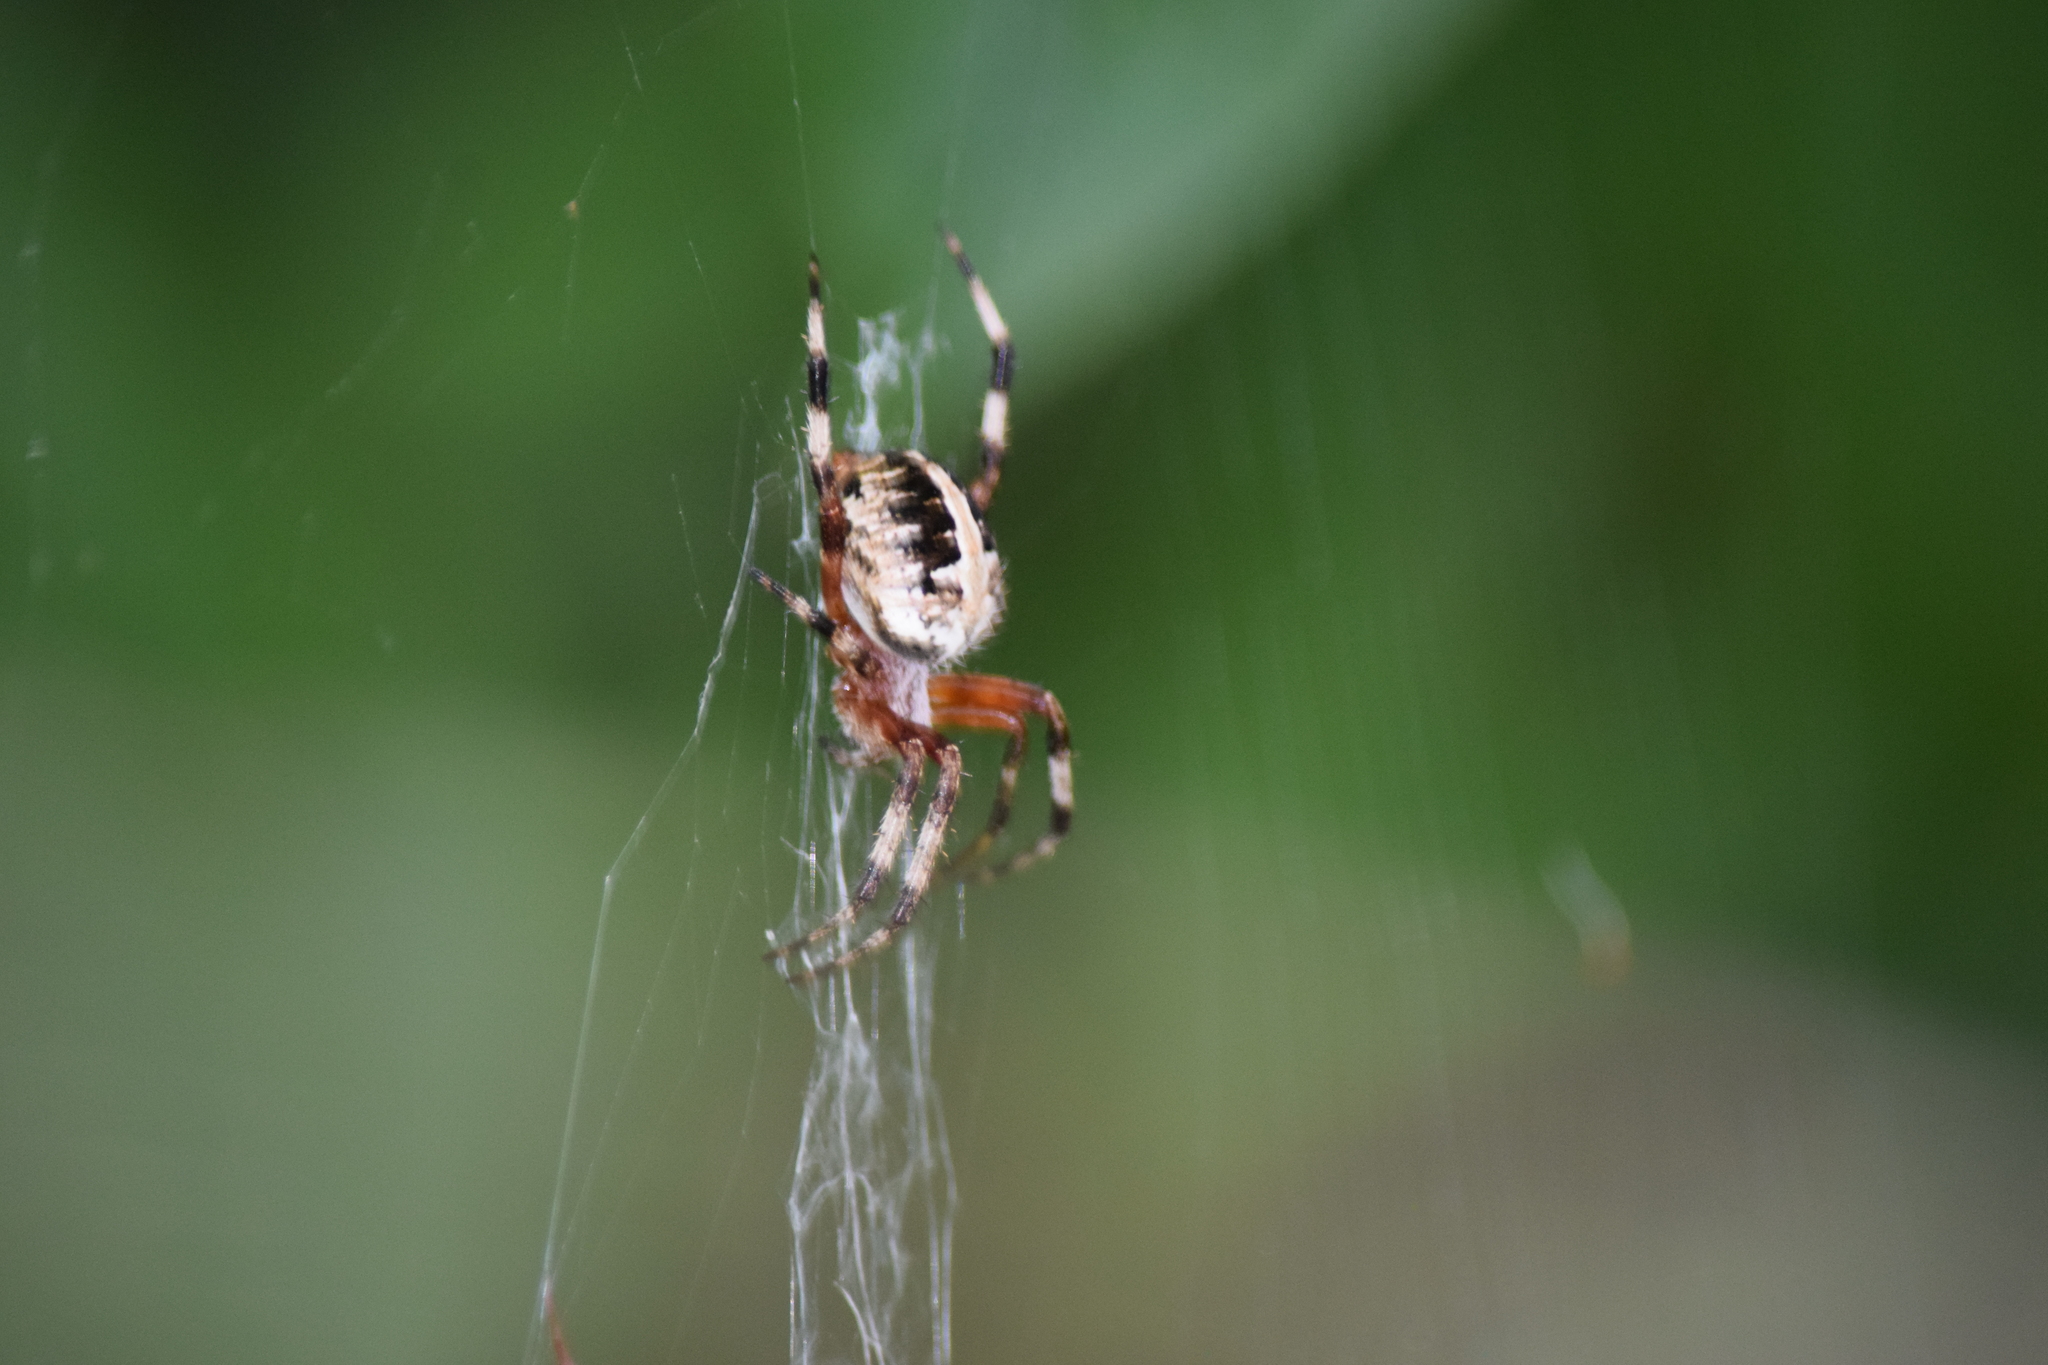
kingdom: Animalia
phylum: Arthropoda
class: Arachnida
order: Araneae
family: Araneidae
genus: Neoscona
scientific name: Neoscona domiciliorum
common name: Red-femured spotted orbweaver
